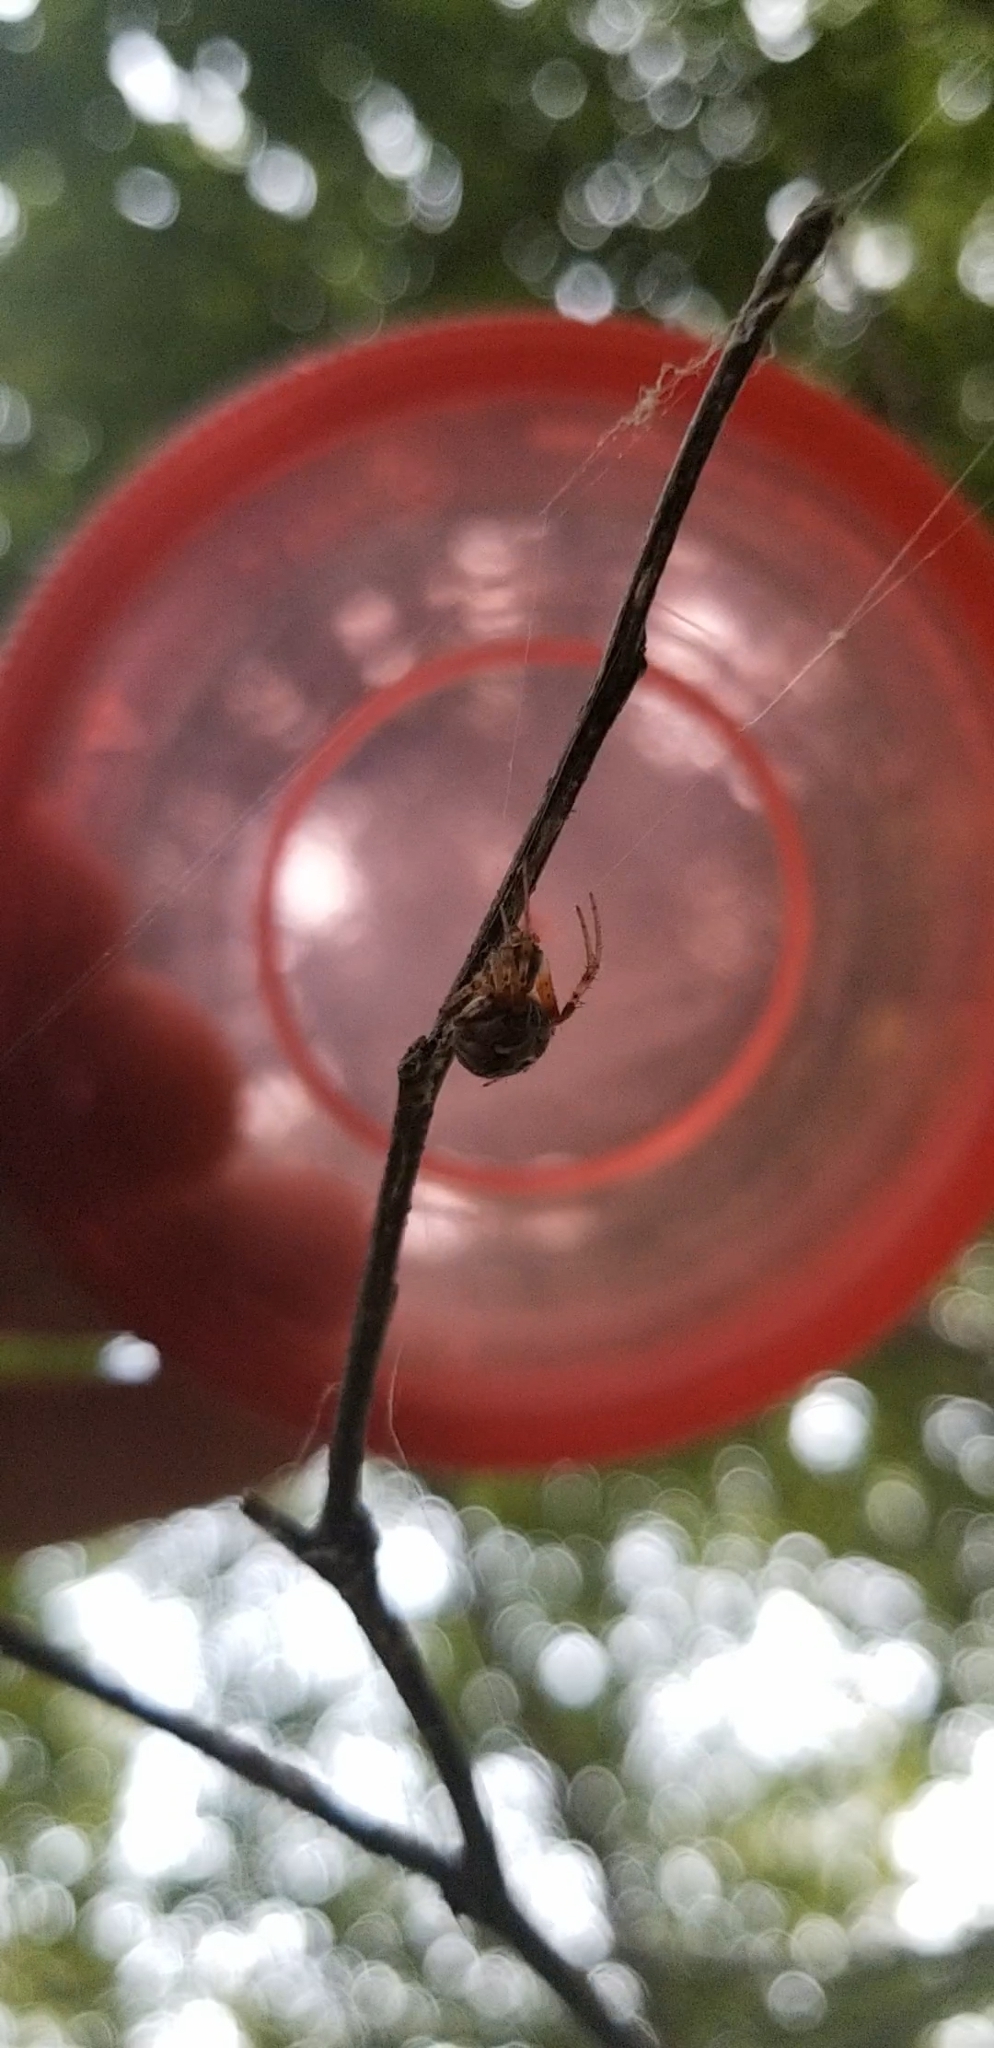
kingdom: Animalia
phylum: Arthropoda
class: Arachnida
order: Araneae
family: Araneidae
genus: Metepeira
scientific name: Metepeira labyrinthea
